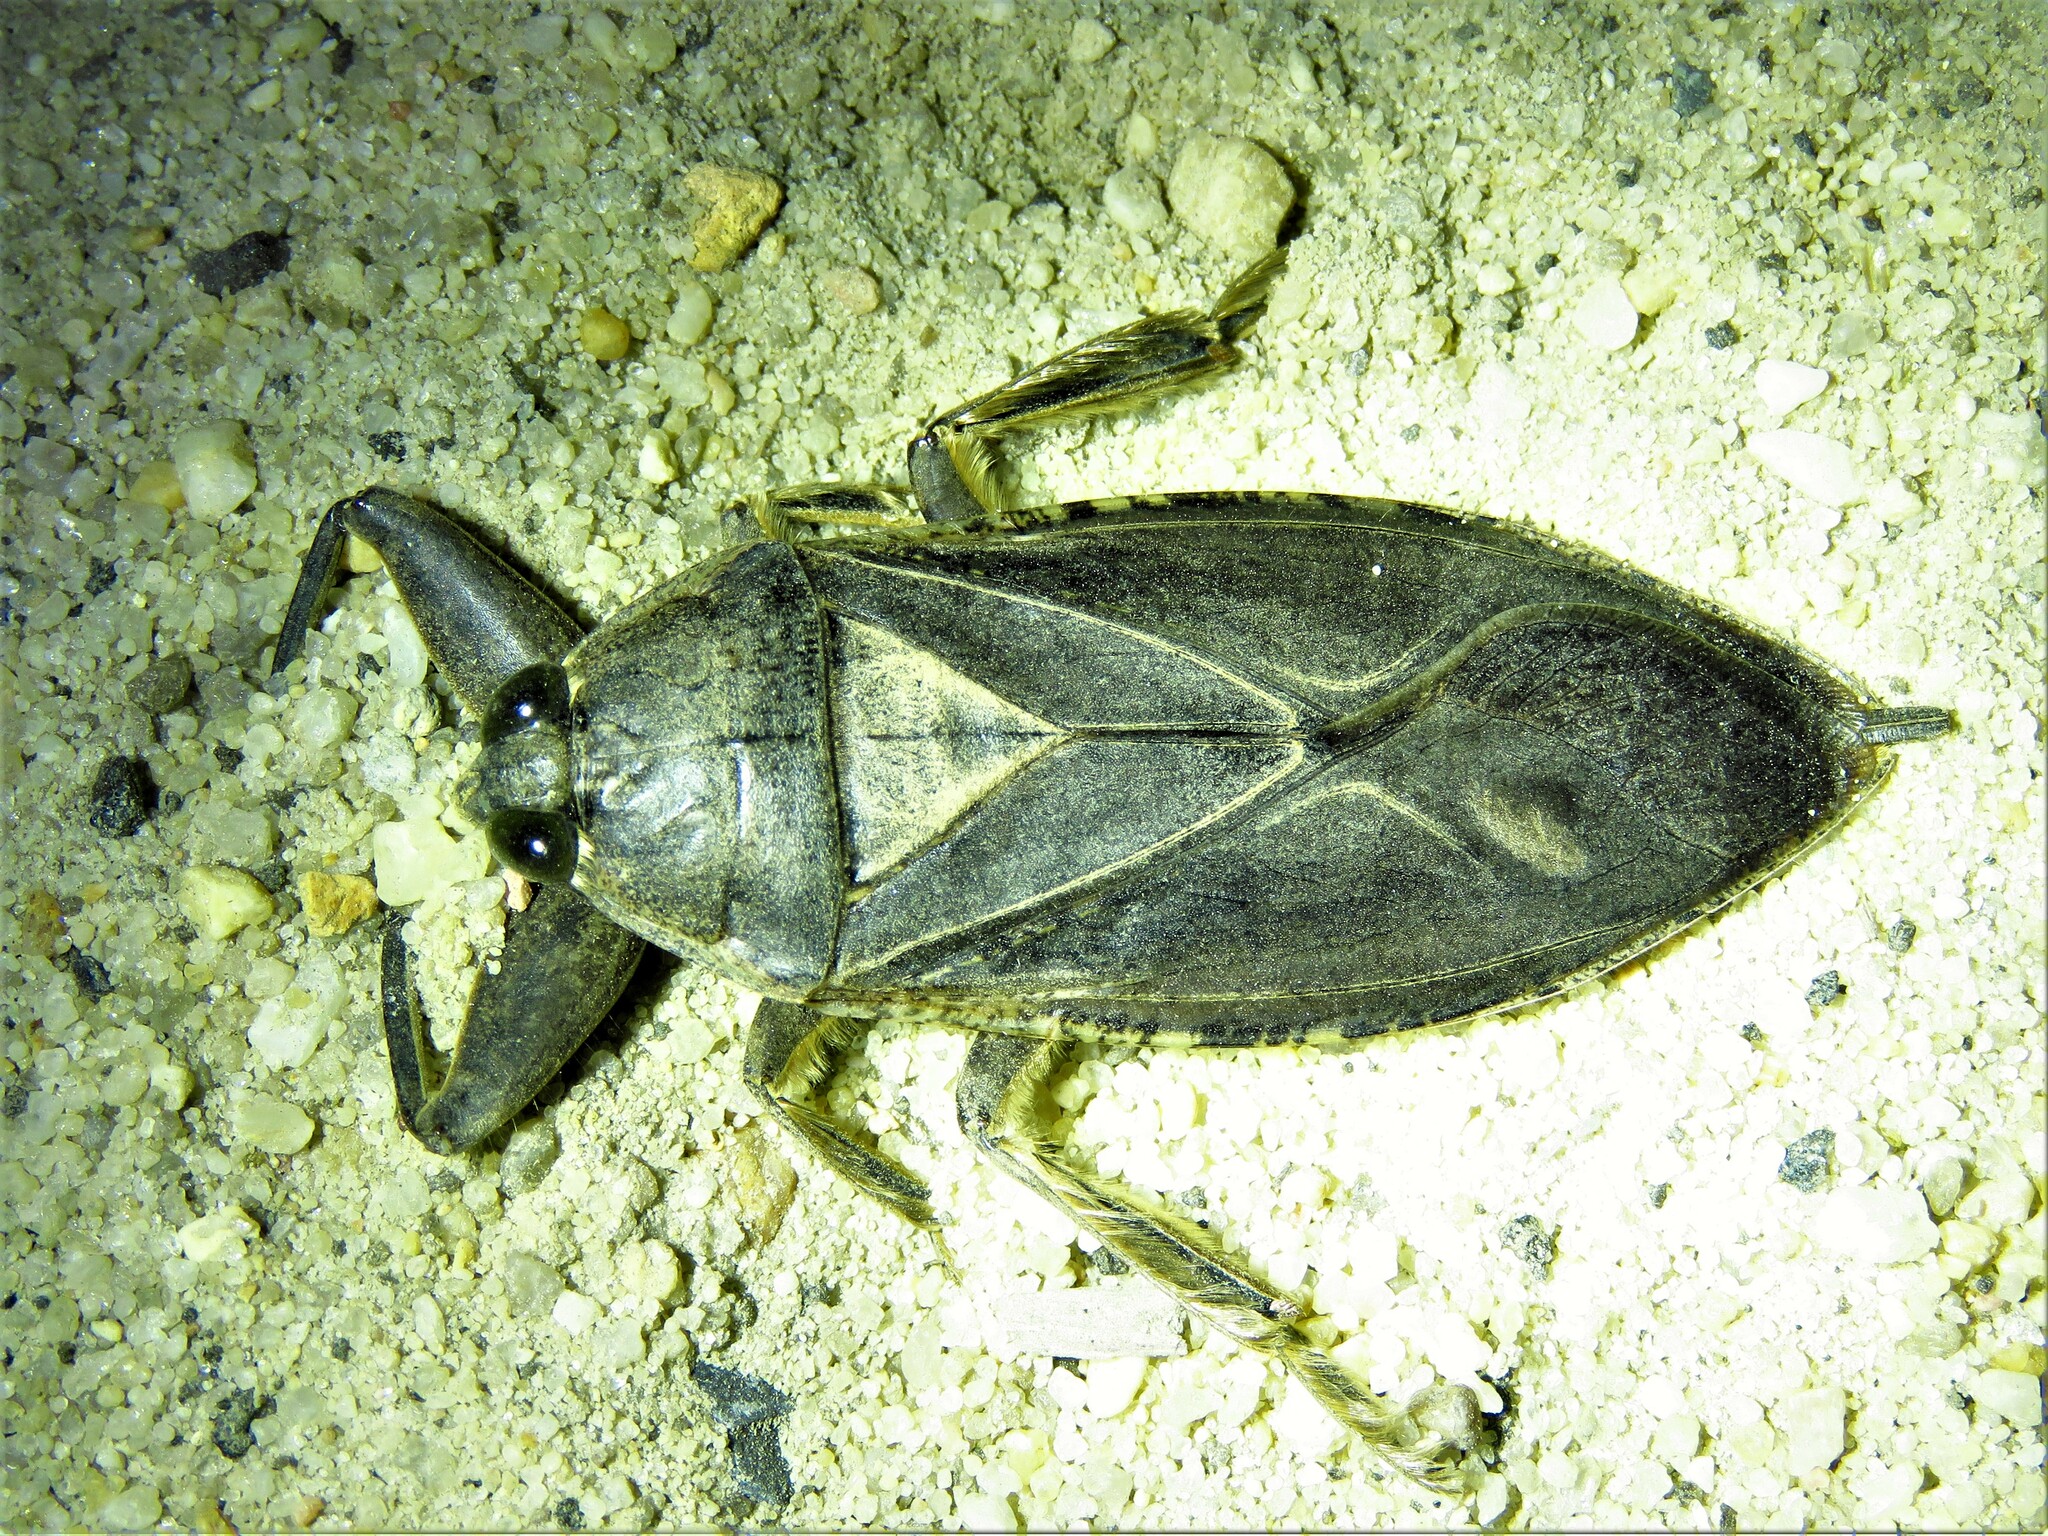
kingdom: Animalia
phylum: Arthropoda
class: Insecta
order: Hemiptera
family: Belostomatidae
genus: Lethocerus
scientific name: Lethocerus americanus
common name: Giant water bug
